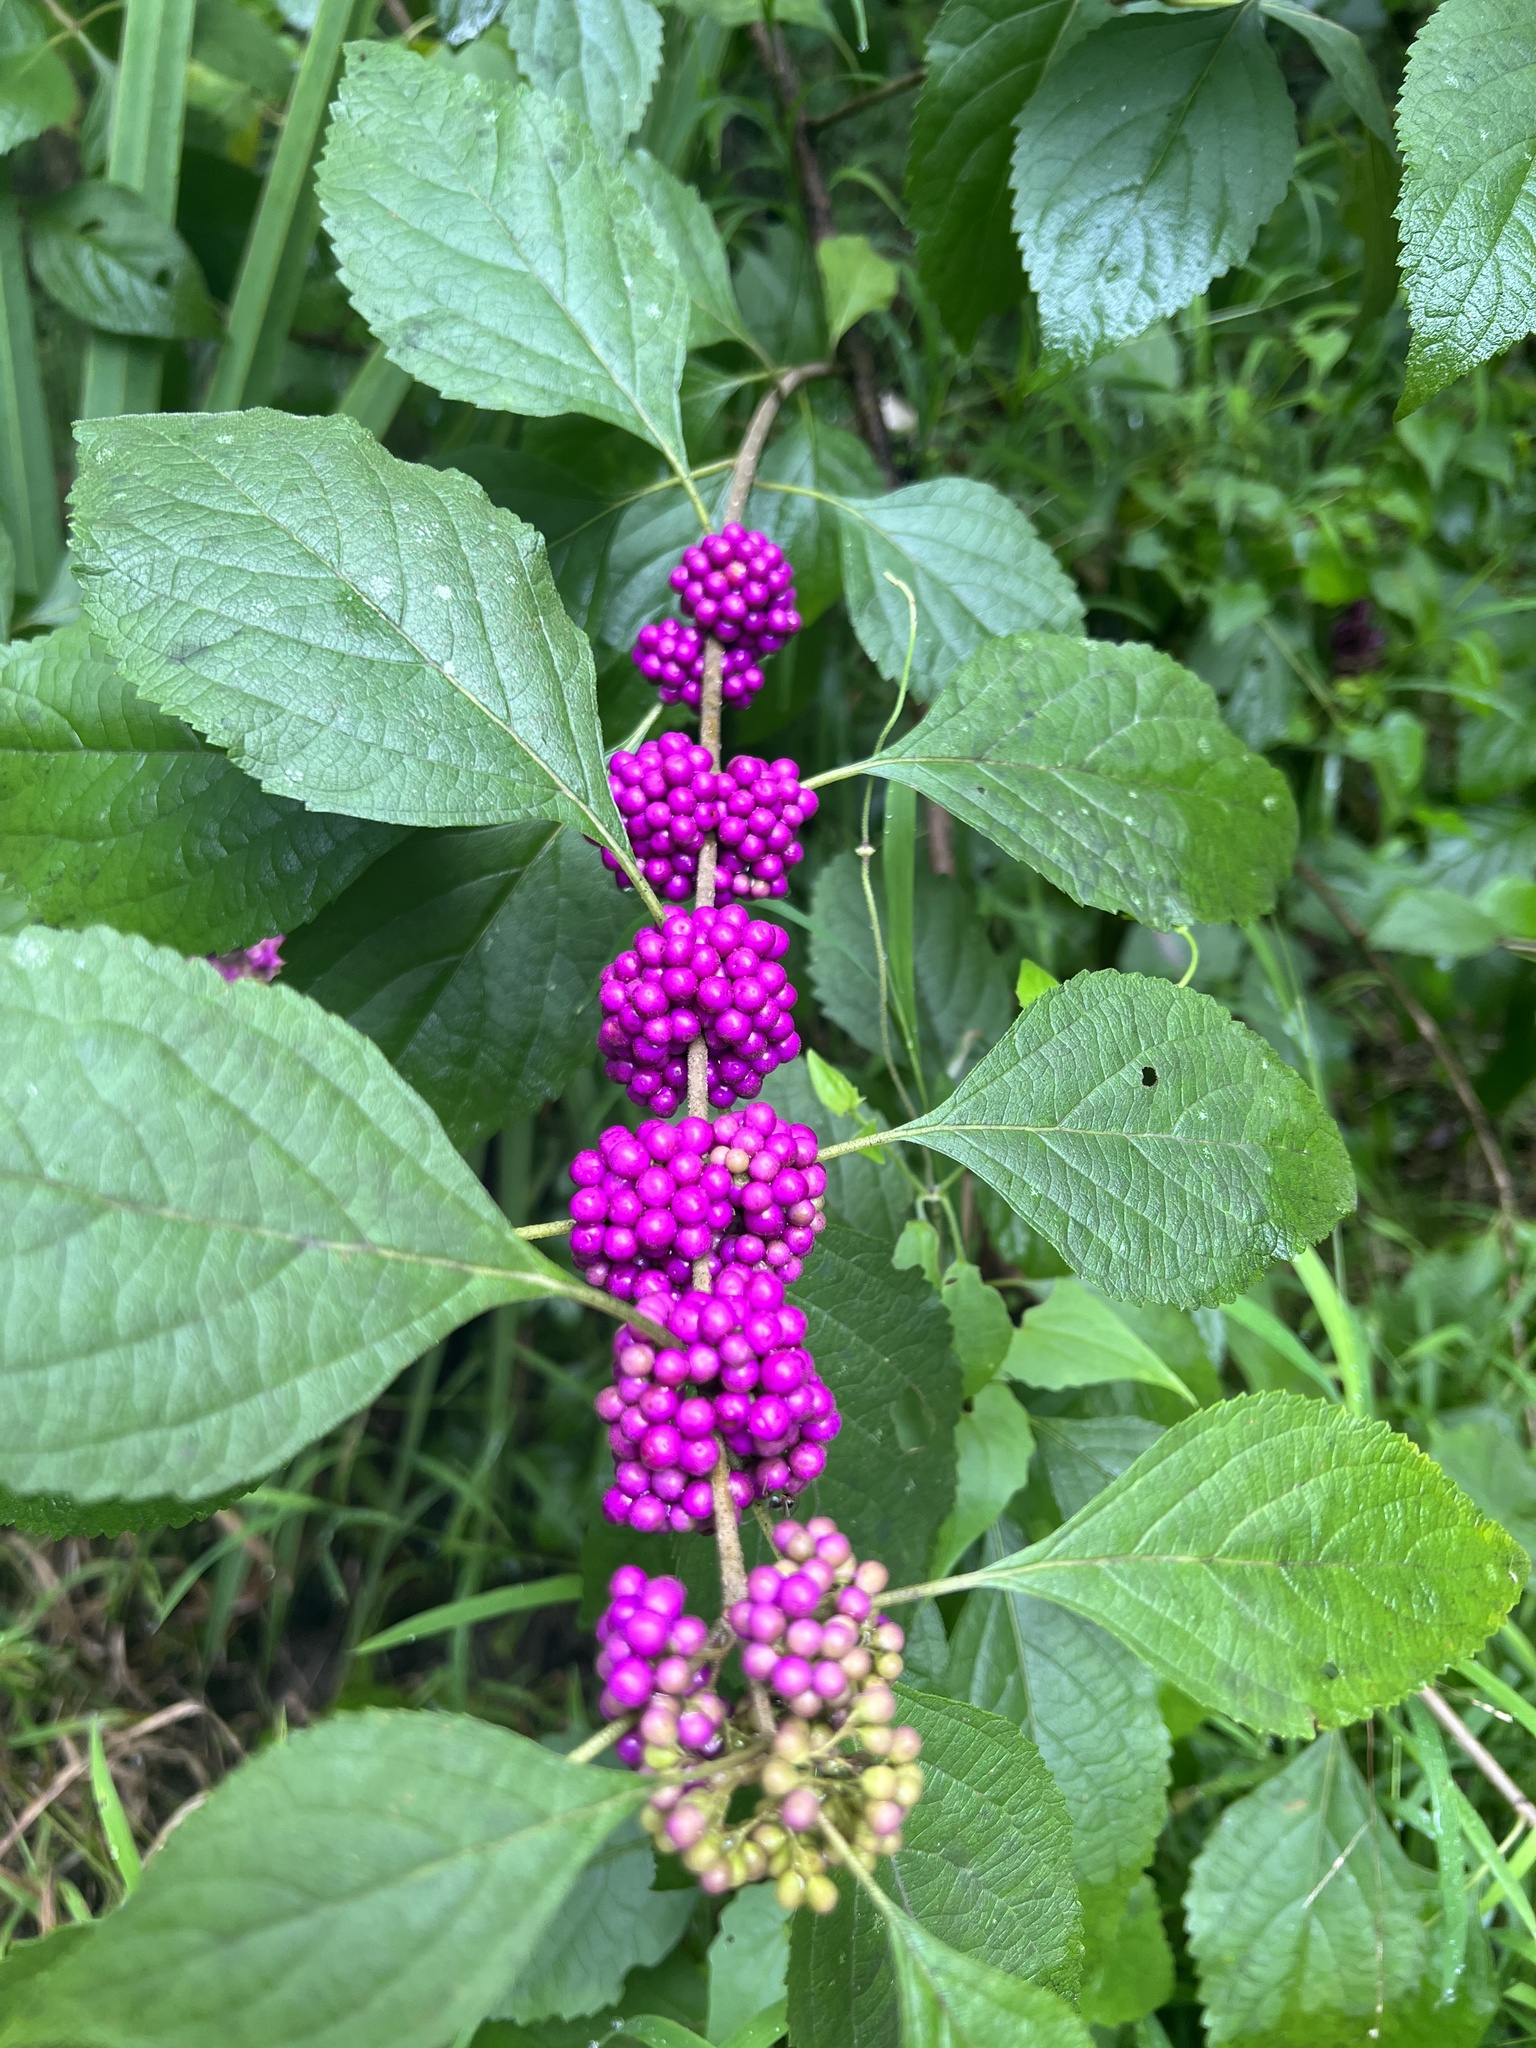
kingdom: Plantae
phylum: Tracheophyta
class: Magnoliopsida
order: Lamiales
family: Lamiaceae
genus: Callicarpa
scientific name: Callicarpa americana
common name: American beautyberry
